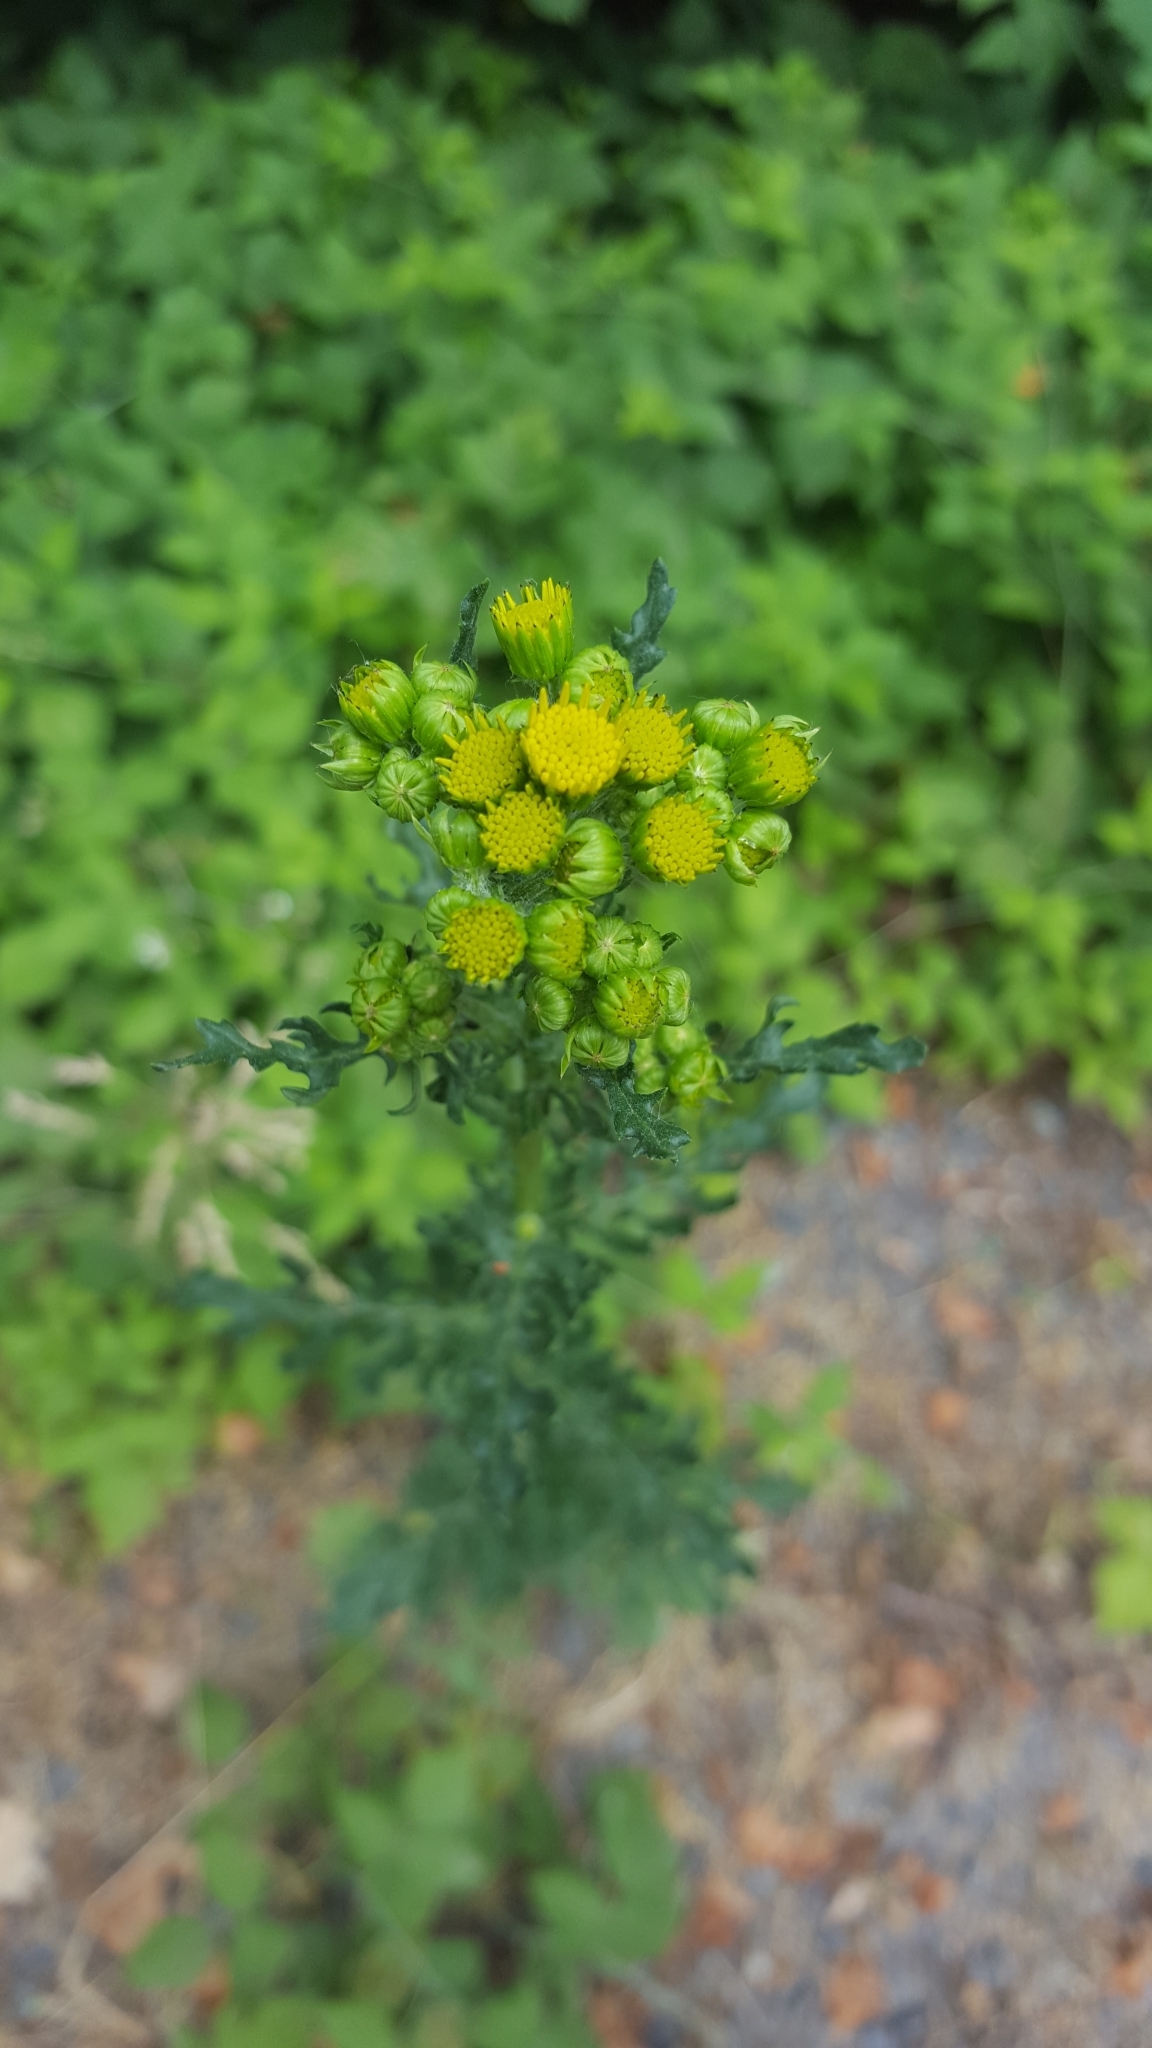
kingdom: Plantae
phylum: Tracheophyta
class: Magnoliopsida
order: Asterales
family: Asteraceae
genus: Jacobaea
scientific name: Jacobaea vulgaris
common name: Stinking willie
